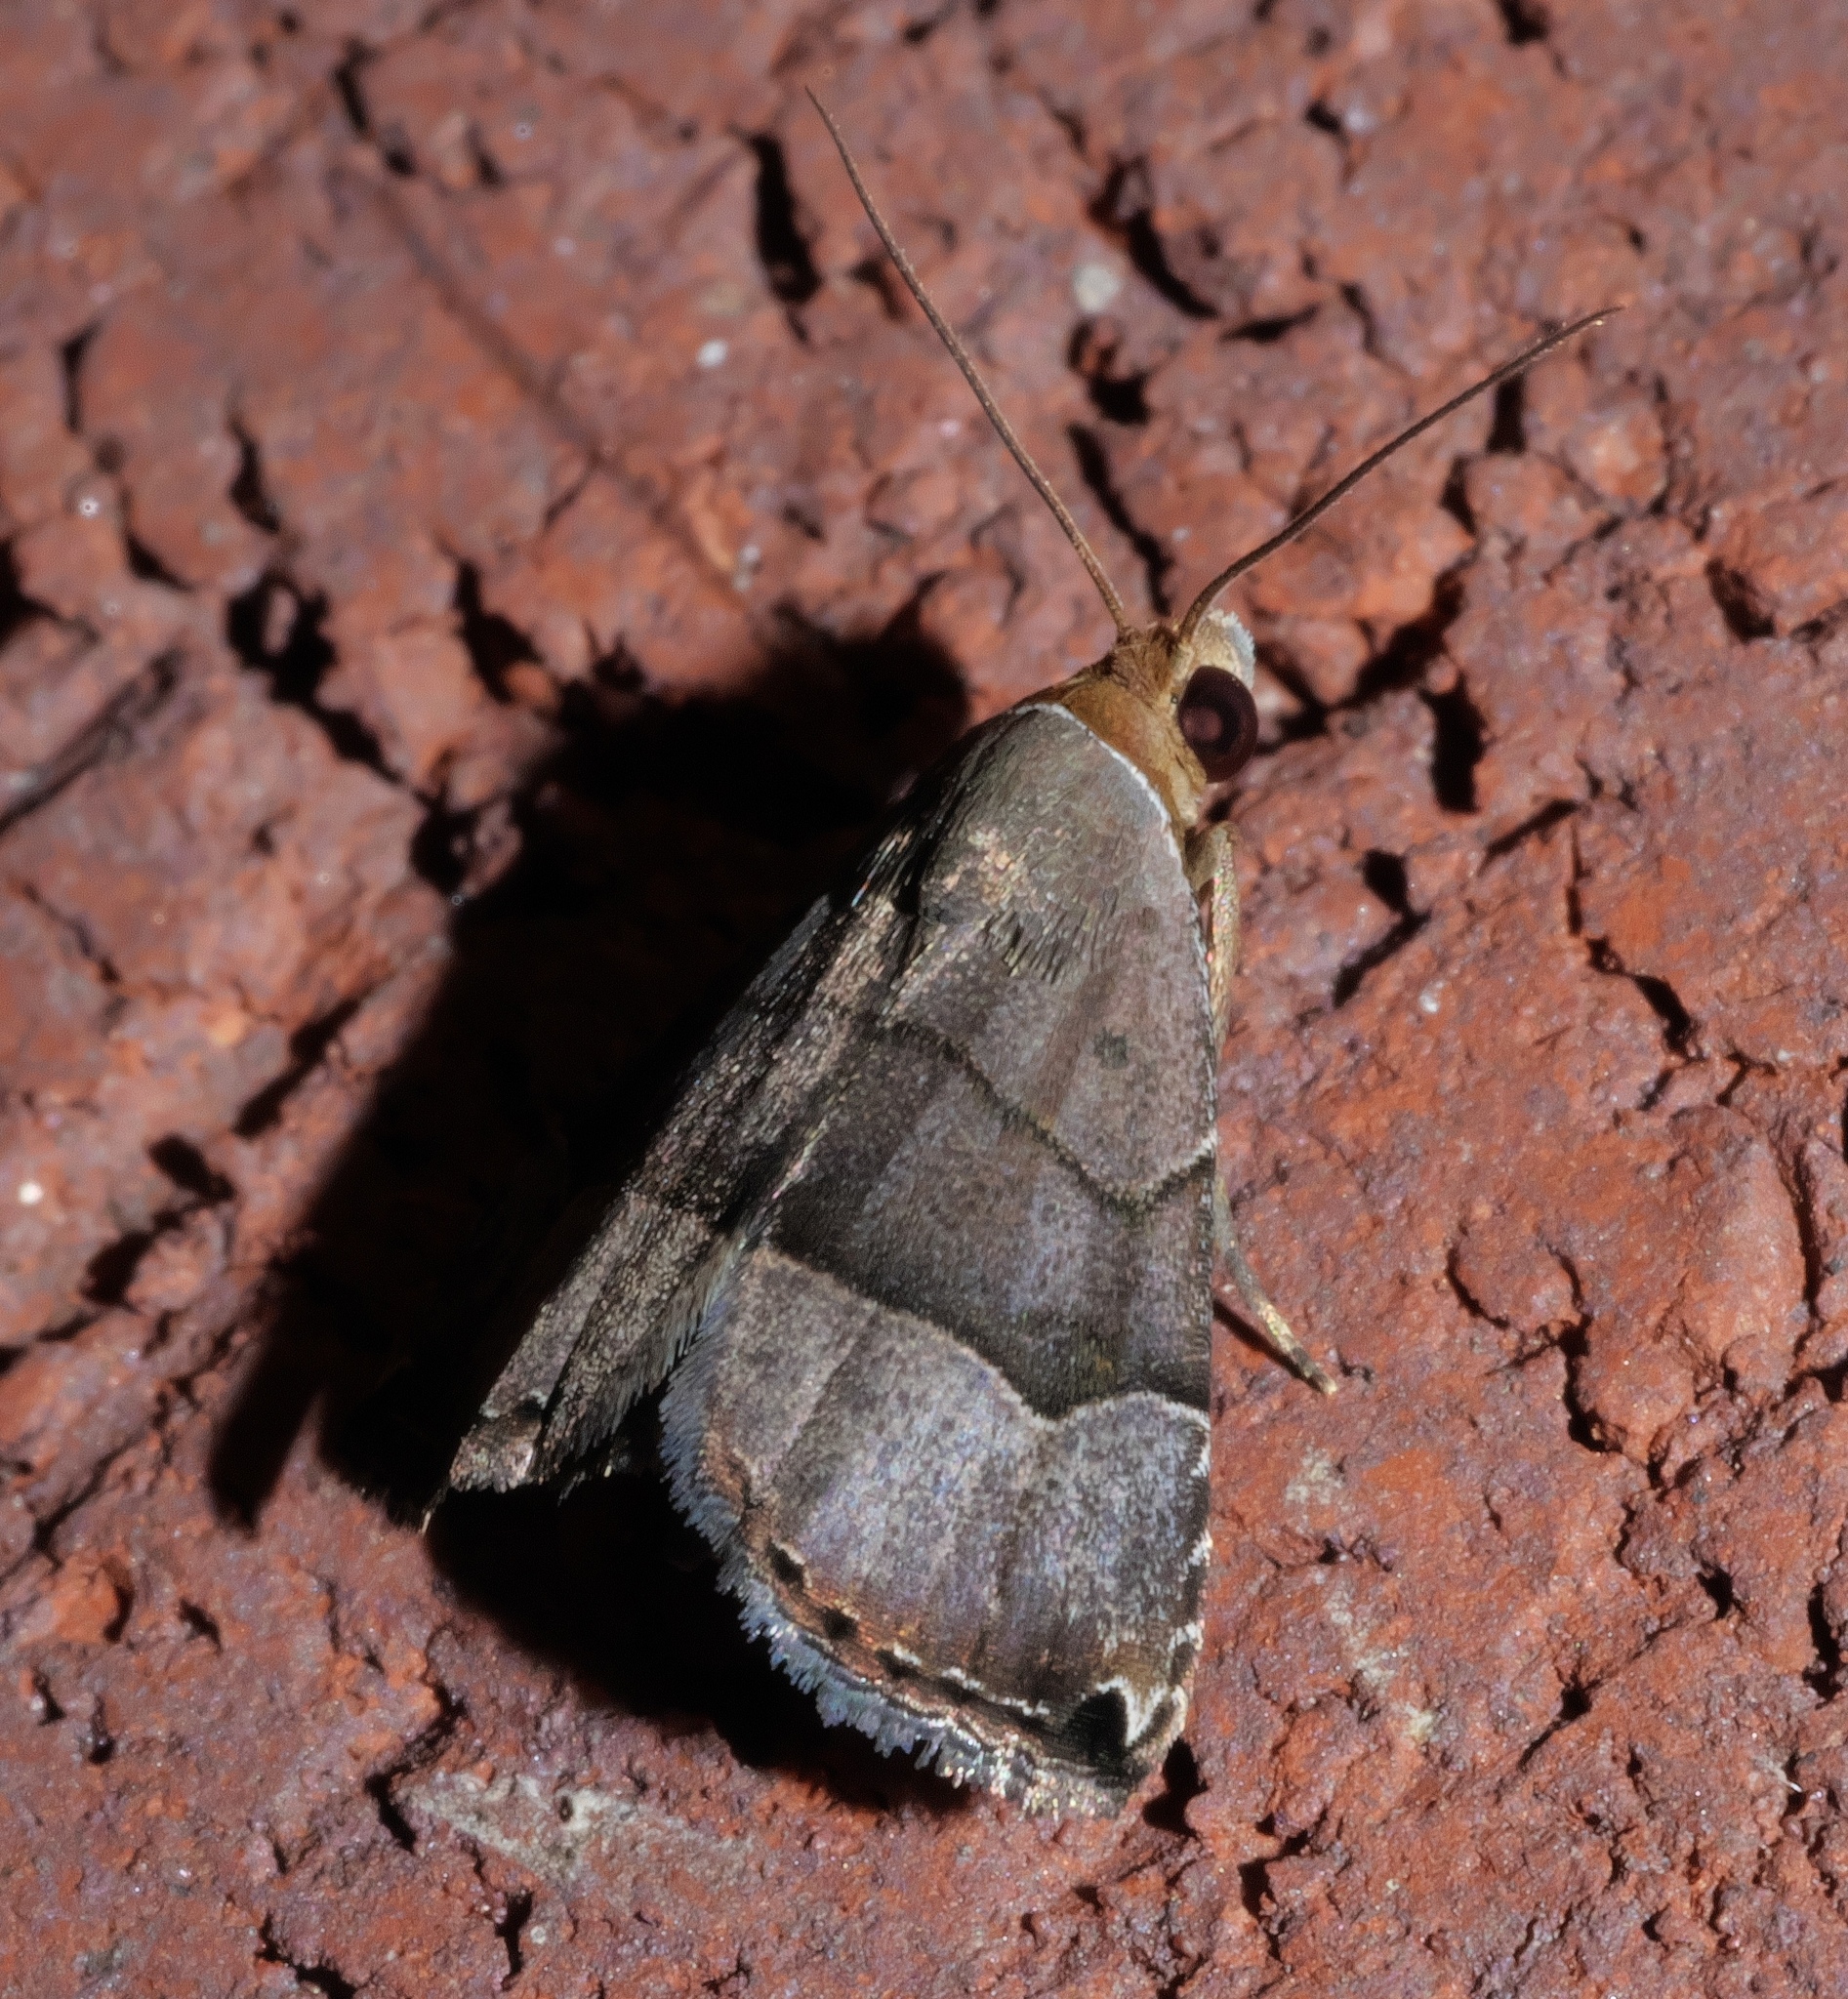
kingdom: Animalia
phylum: Arthropoda
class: Insecta
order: Lepidoptera
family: Noctuidae
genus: Abacena
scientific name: Abacena mundula
